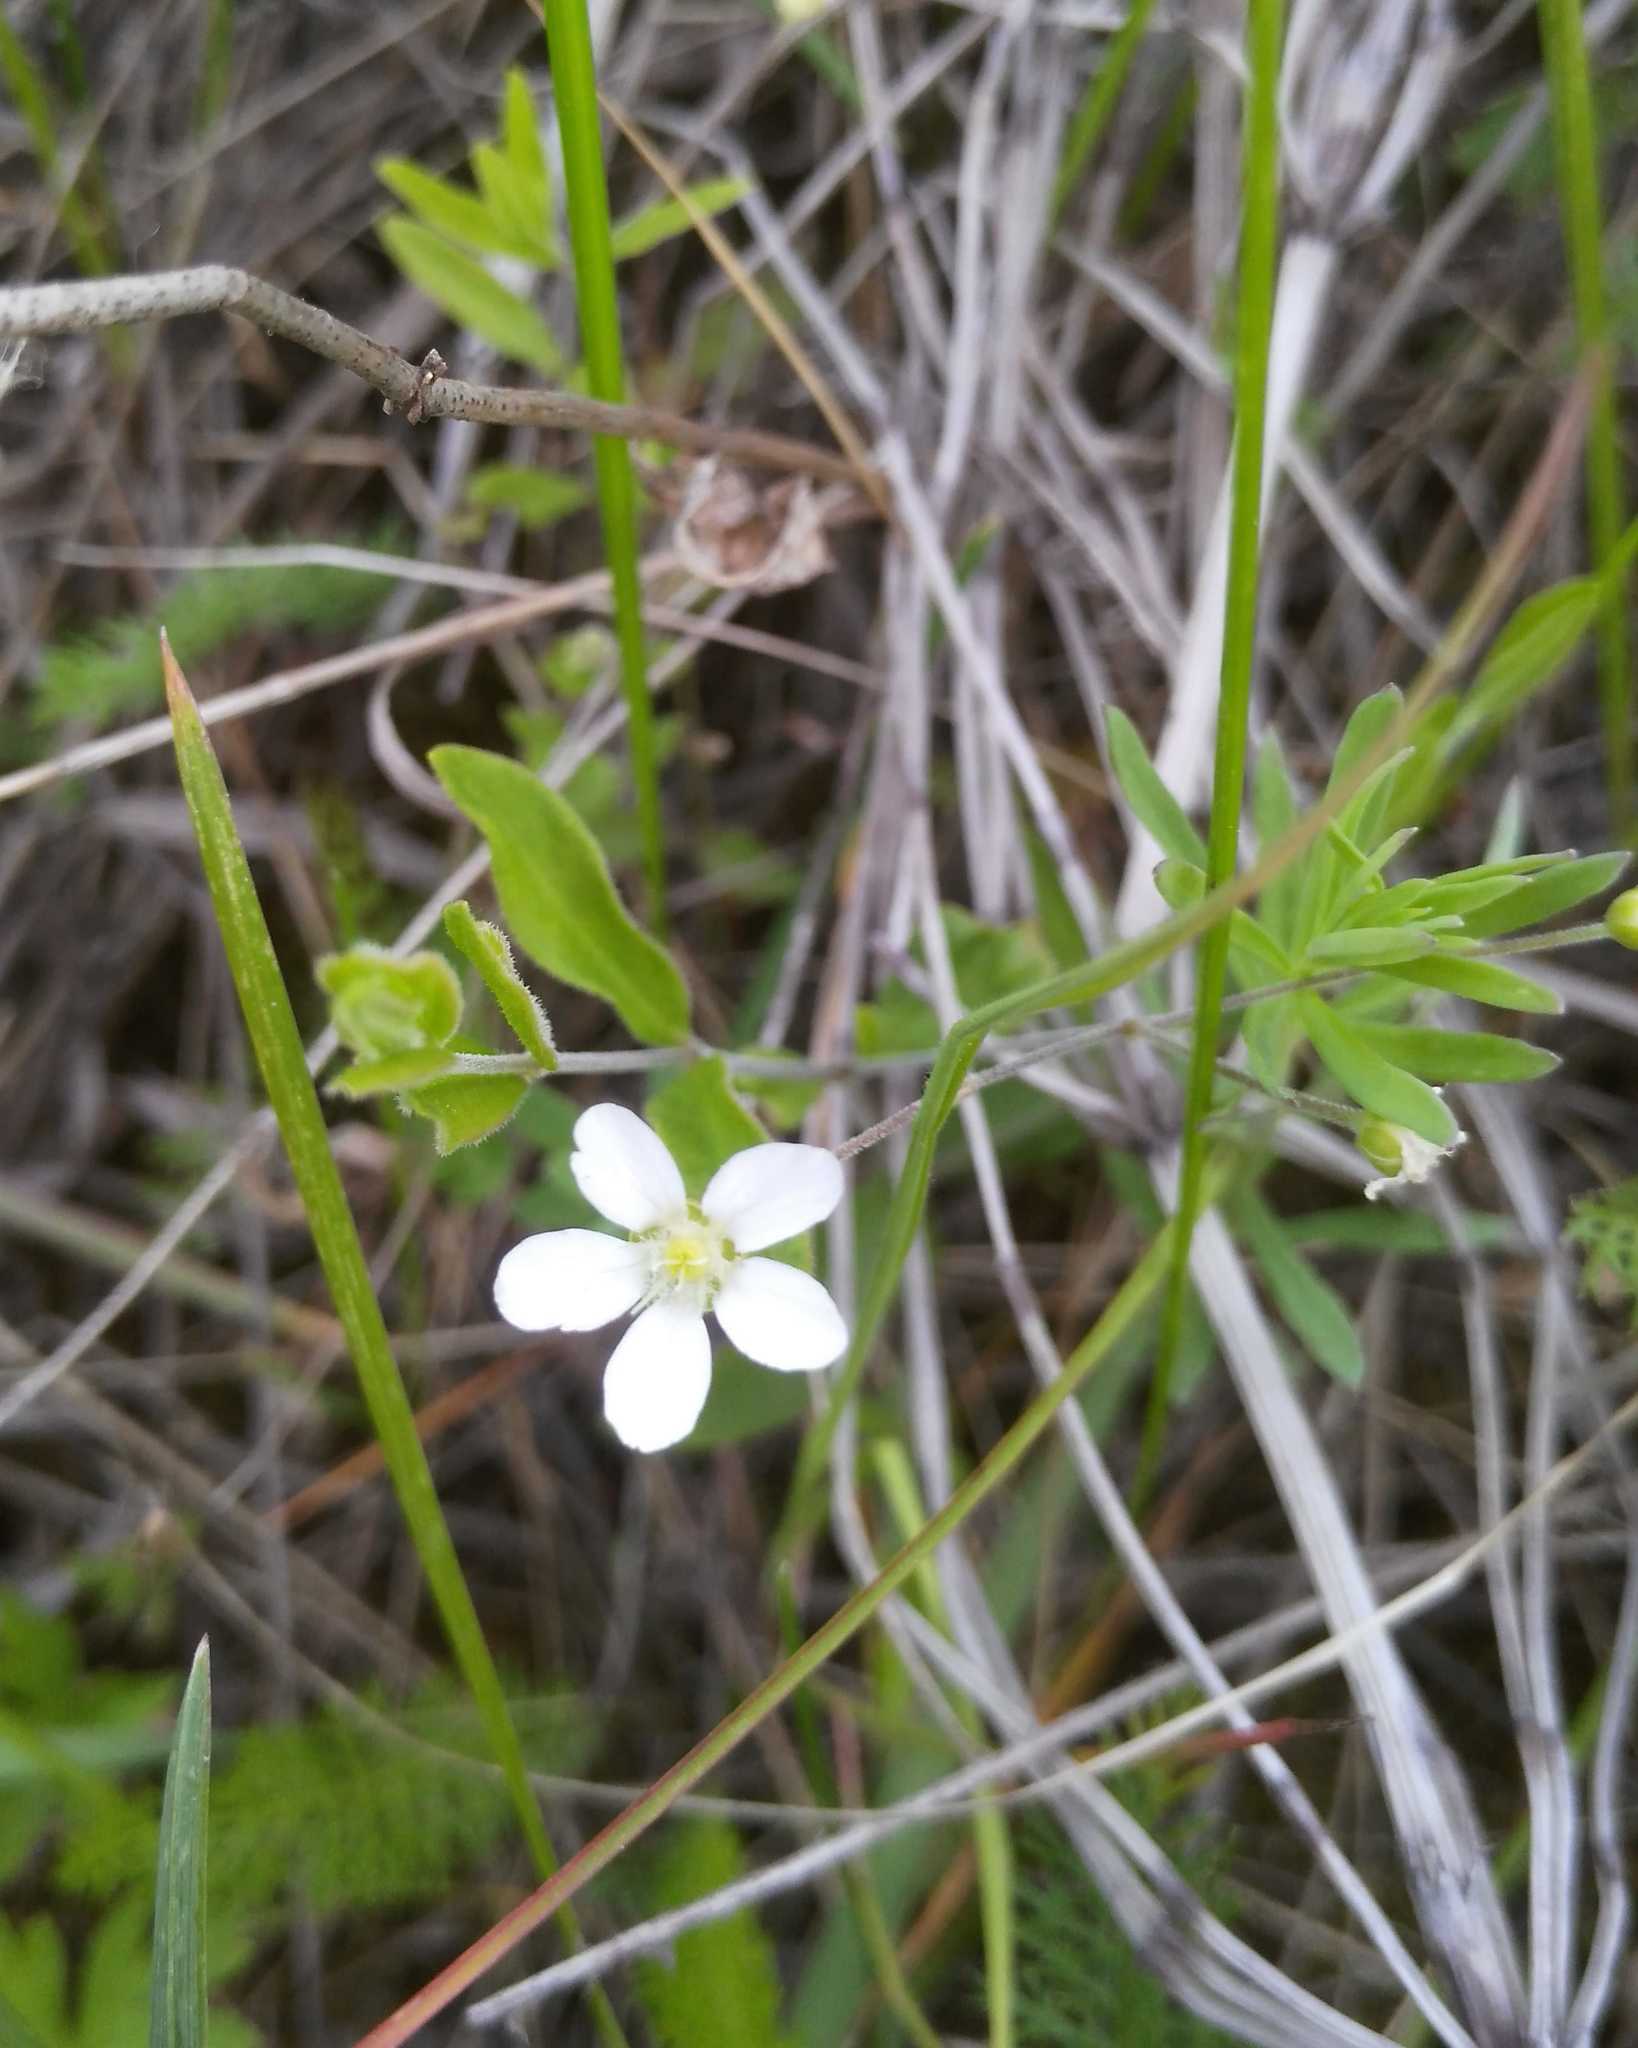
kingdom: Plantae
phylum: Tracheophyta
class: Magnoliopsida
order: Caryophyllales
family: Caryophyllaceae
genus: Moehringia
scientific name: Moehringia lateriflora
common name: Blunt-leaved sandwort
